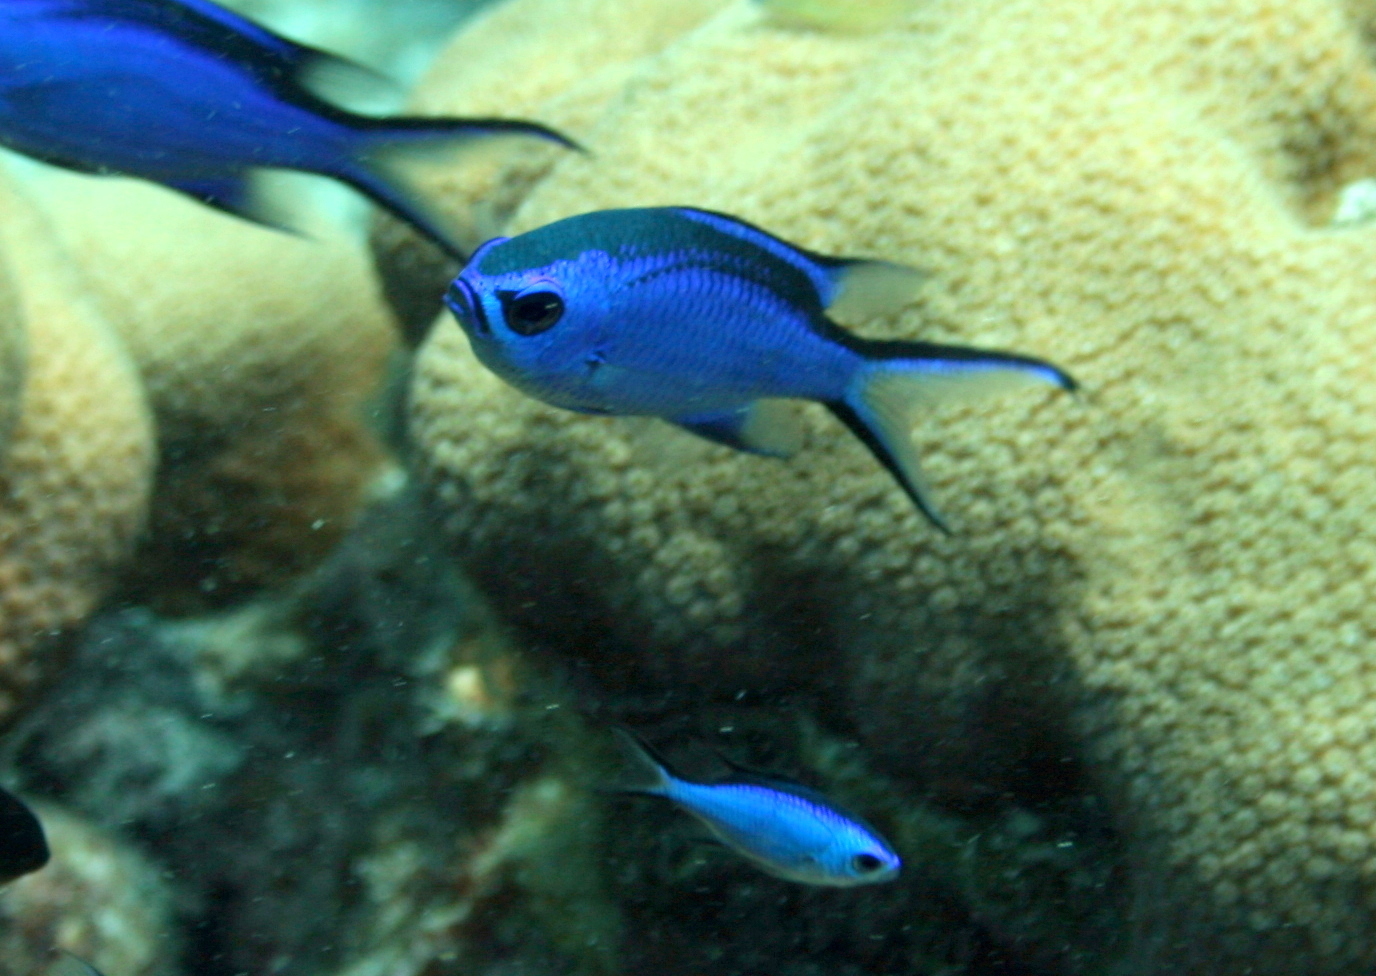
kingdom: Animalia
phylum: Chordata
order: Perciformes
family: Pomacentridae
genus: Chromis
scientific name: Chromis cyanea
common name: Blue chromis
